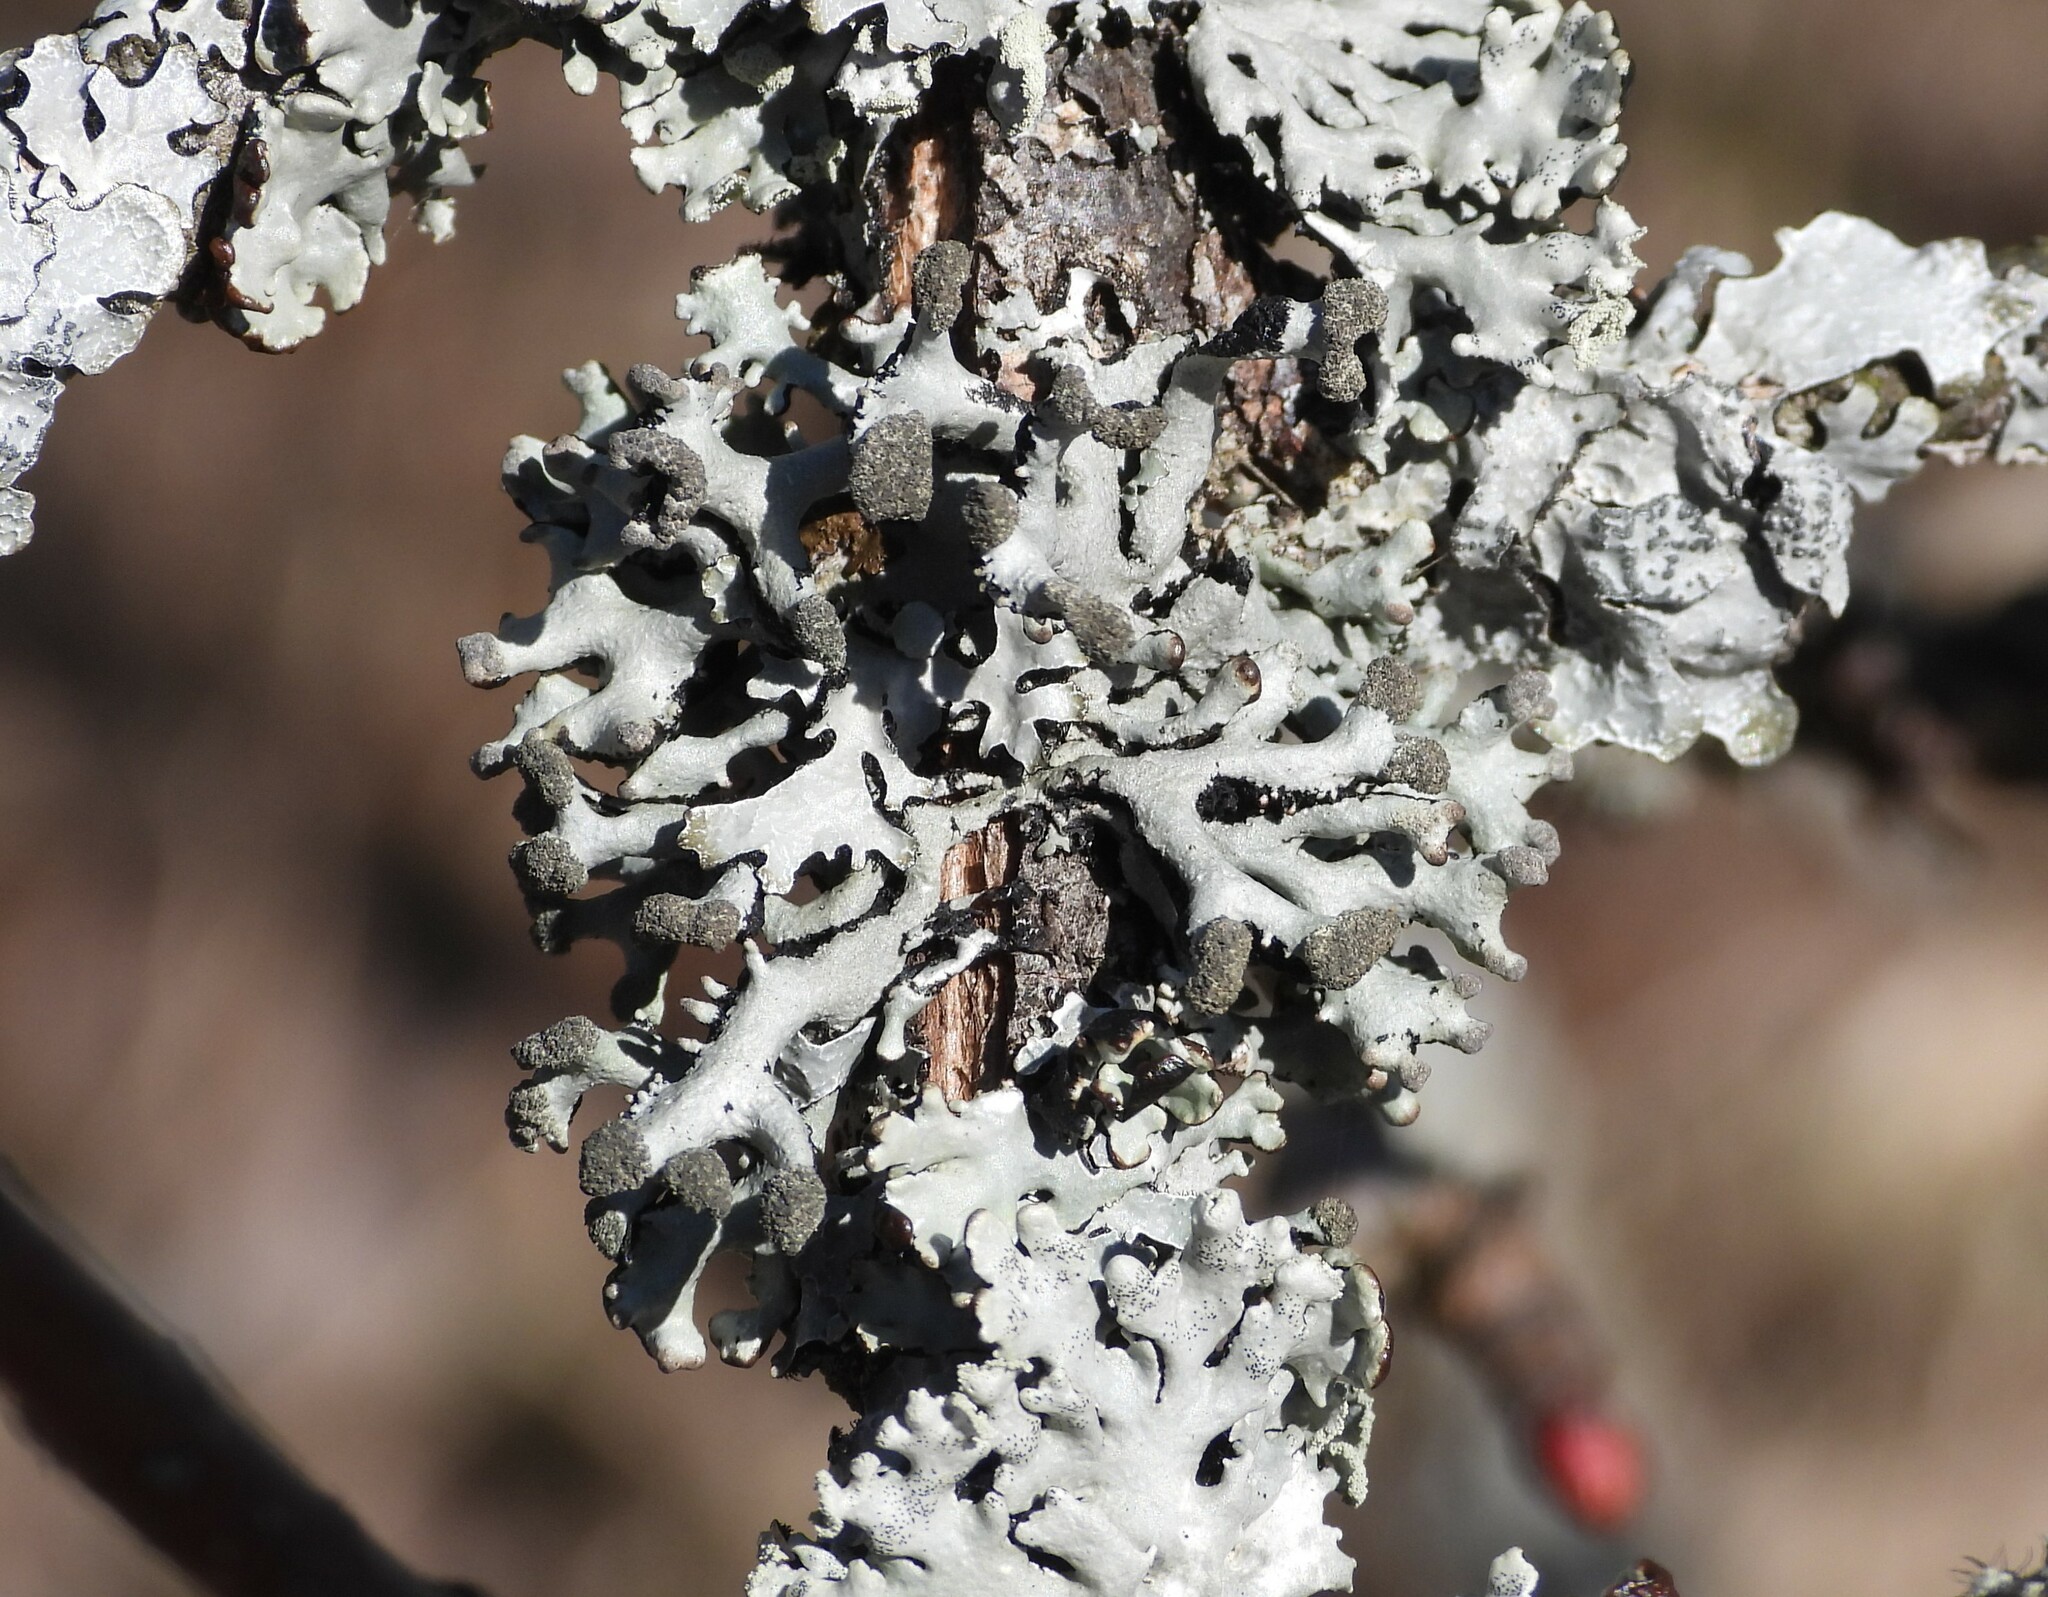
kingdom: Fungi
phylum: Ascomycota
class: Lecanoromycetes
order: Lecanorales
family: Parmeliaceae
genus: Hypogymnia
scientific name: Hypogymnia tubulosa
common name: Powder-headed tube lichen
